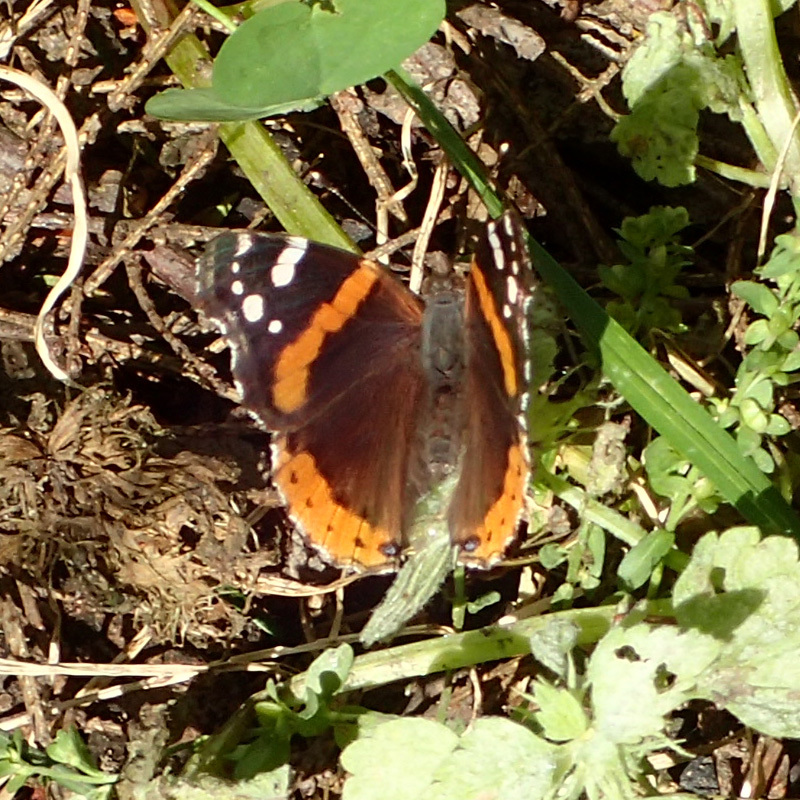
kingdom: Animalia
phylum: Arthropoda
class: Insecta
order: Lepidoptera
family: Nymphalidae
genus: Vanessa
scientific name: Vanessa atalanta
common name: Red admiral
